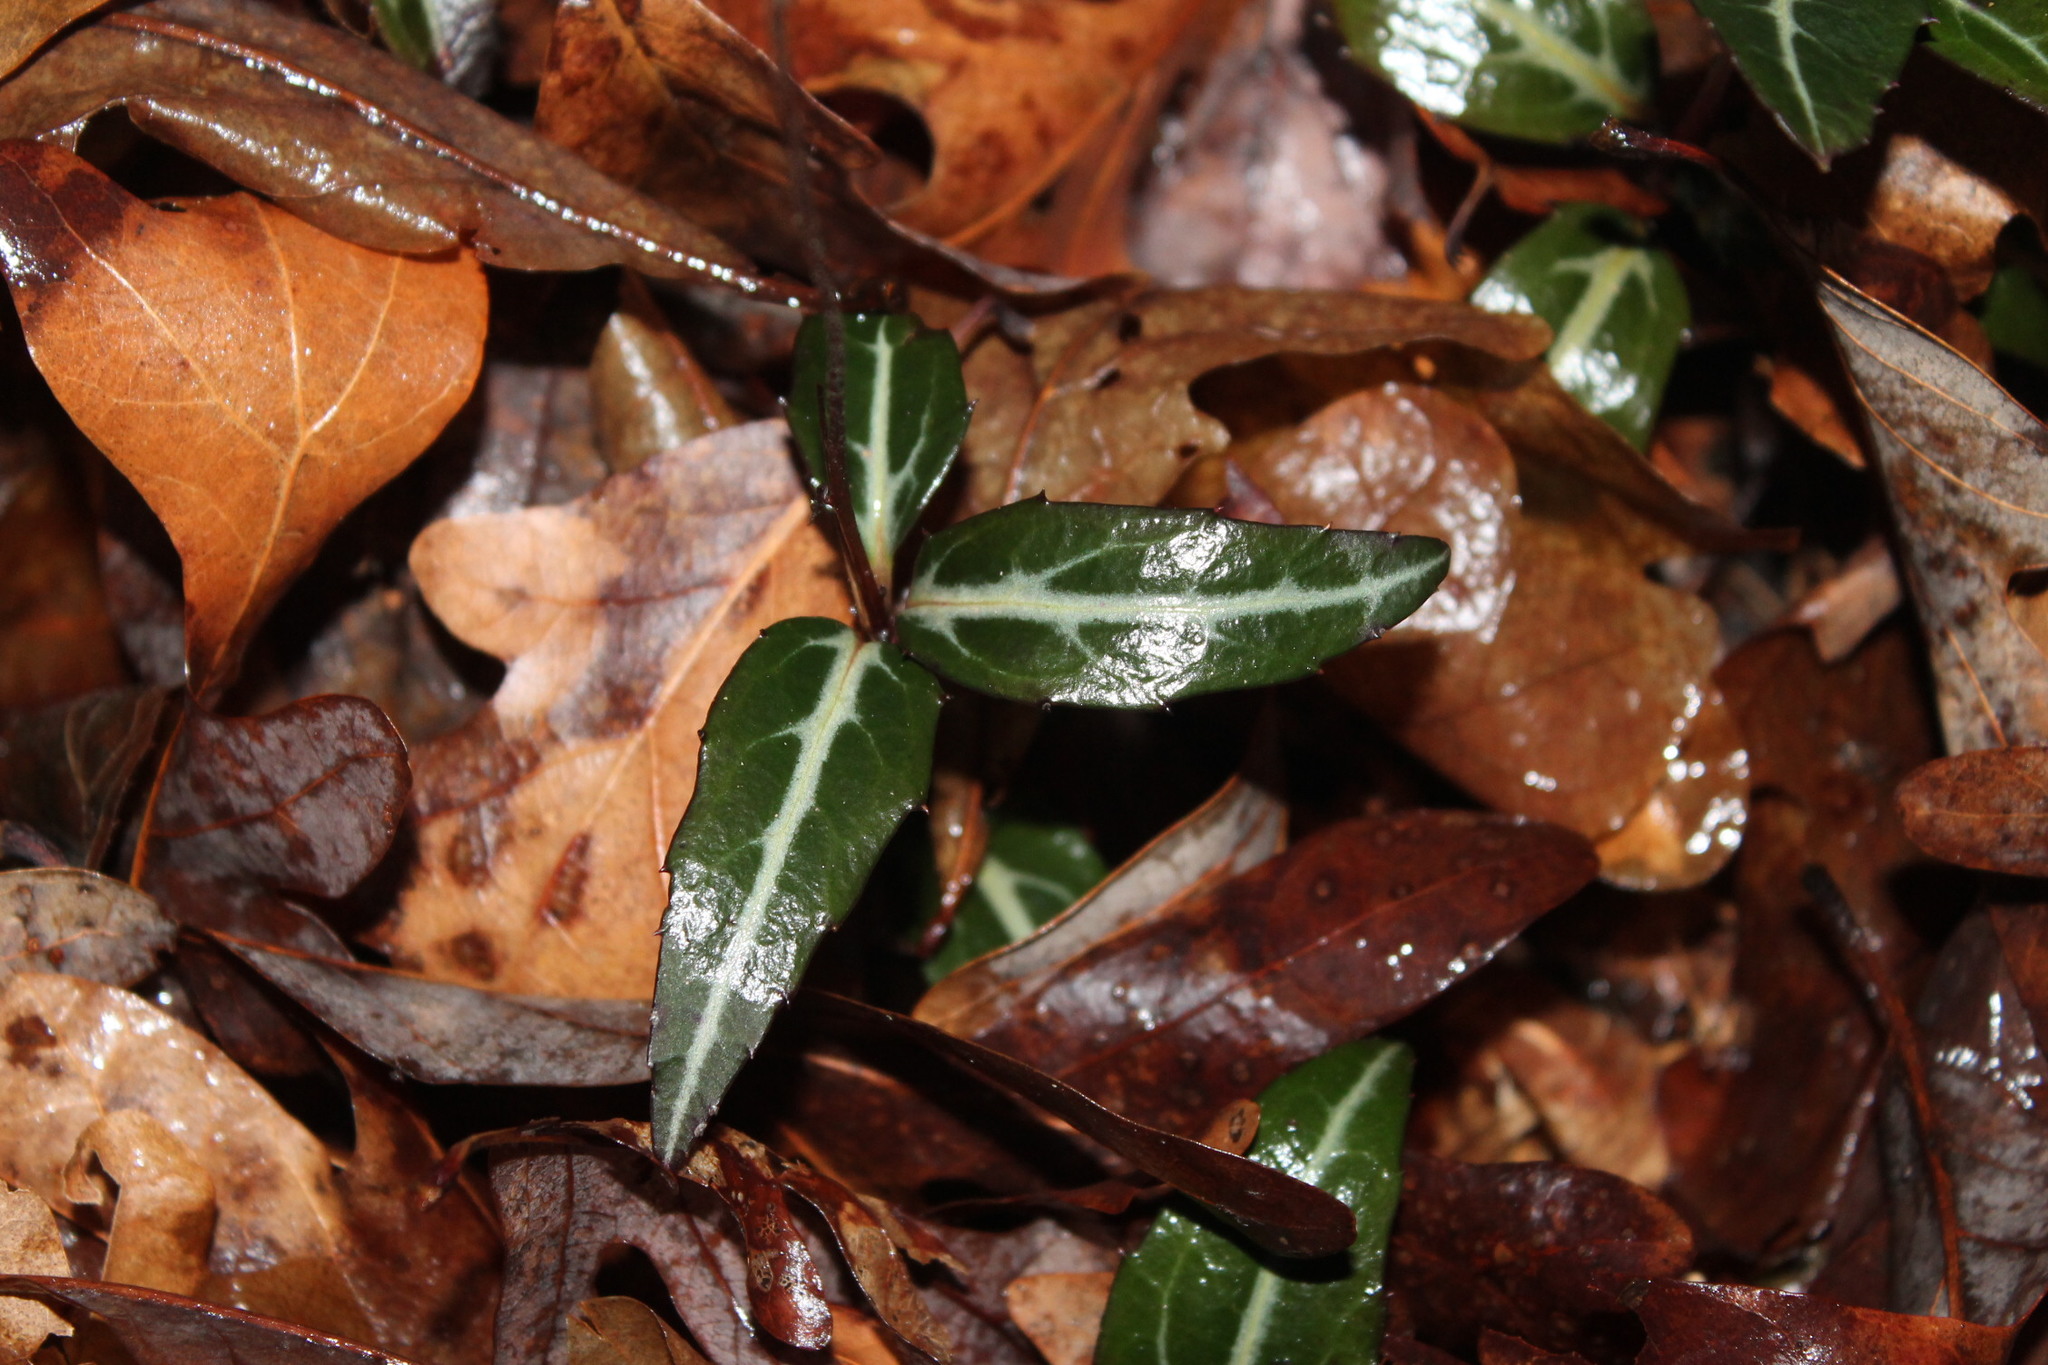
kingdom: Plantae
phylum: Tracheophyta
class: Magnoliopsida
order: Ericales
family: Ericaceae
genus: Chimaphila
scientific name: Chimaphila maculata
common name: Spotted pipsissewa
